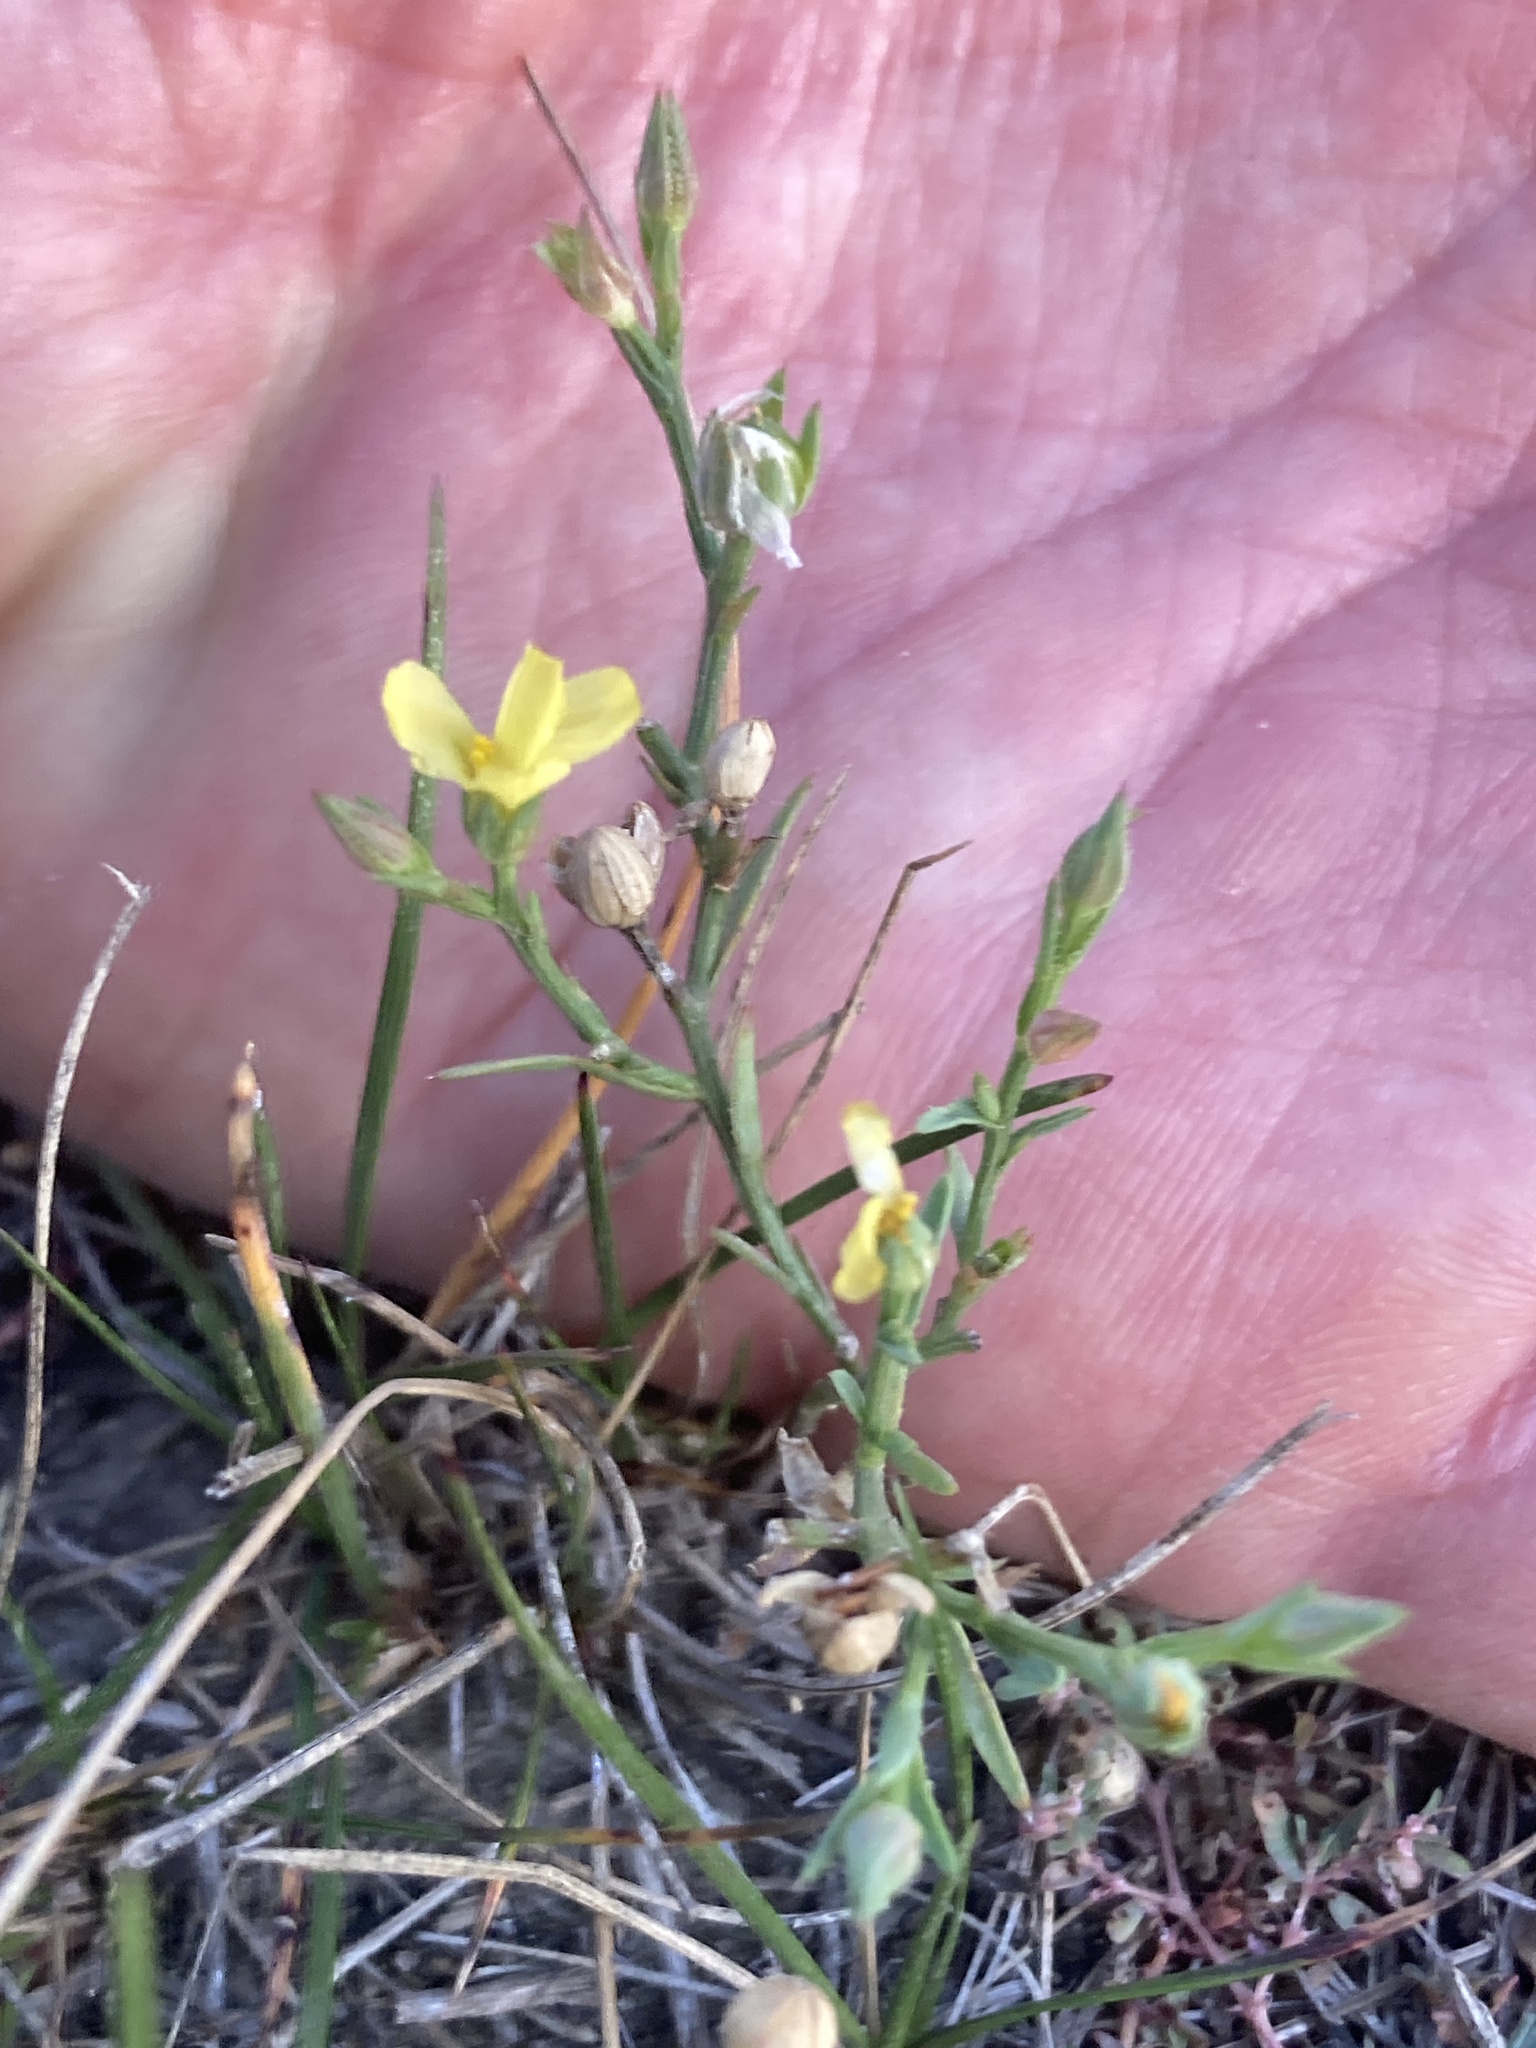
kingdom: Plantae
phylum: Tracheophyta
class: Magnoliopsida
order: Malpighiales
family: Linaceae
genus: Linum
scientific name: Linum compactum
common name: Wyoming flax
